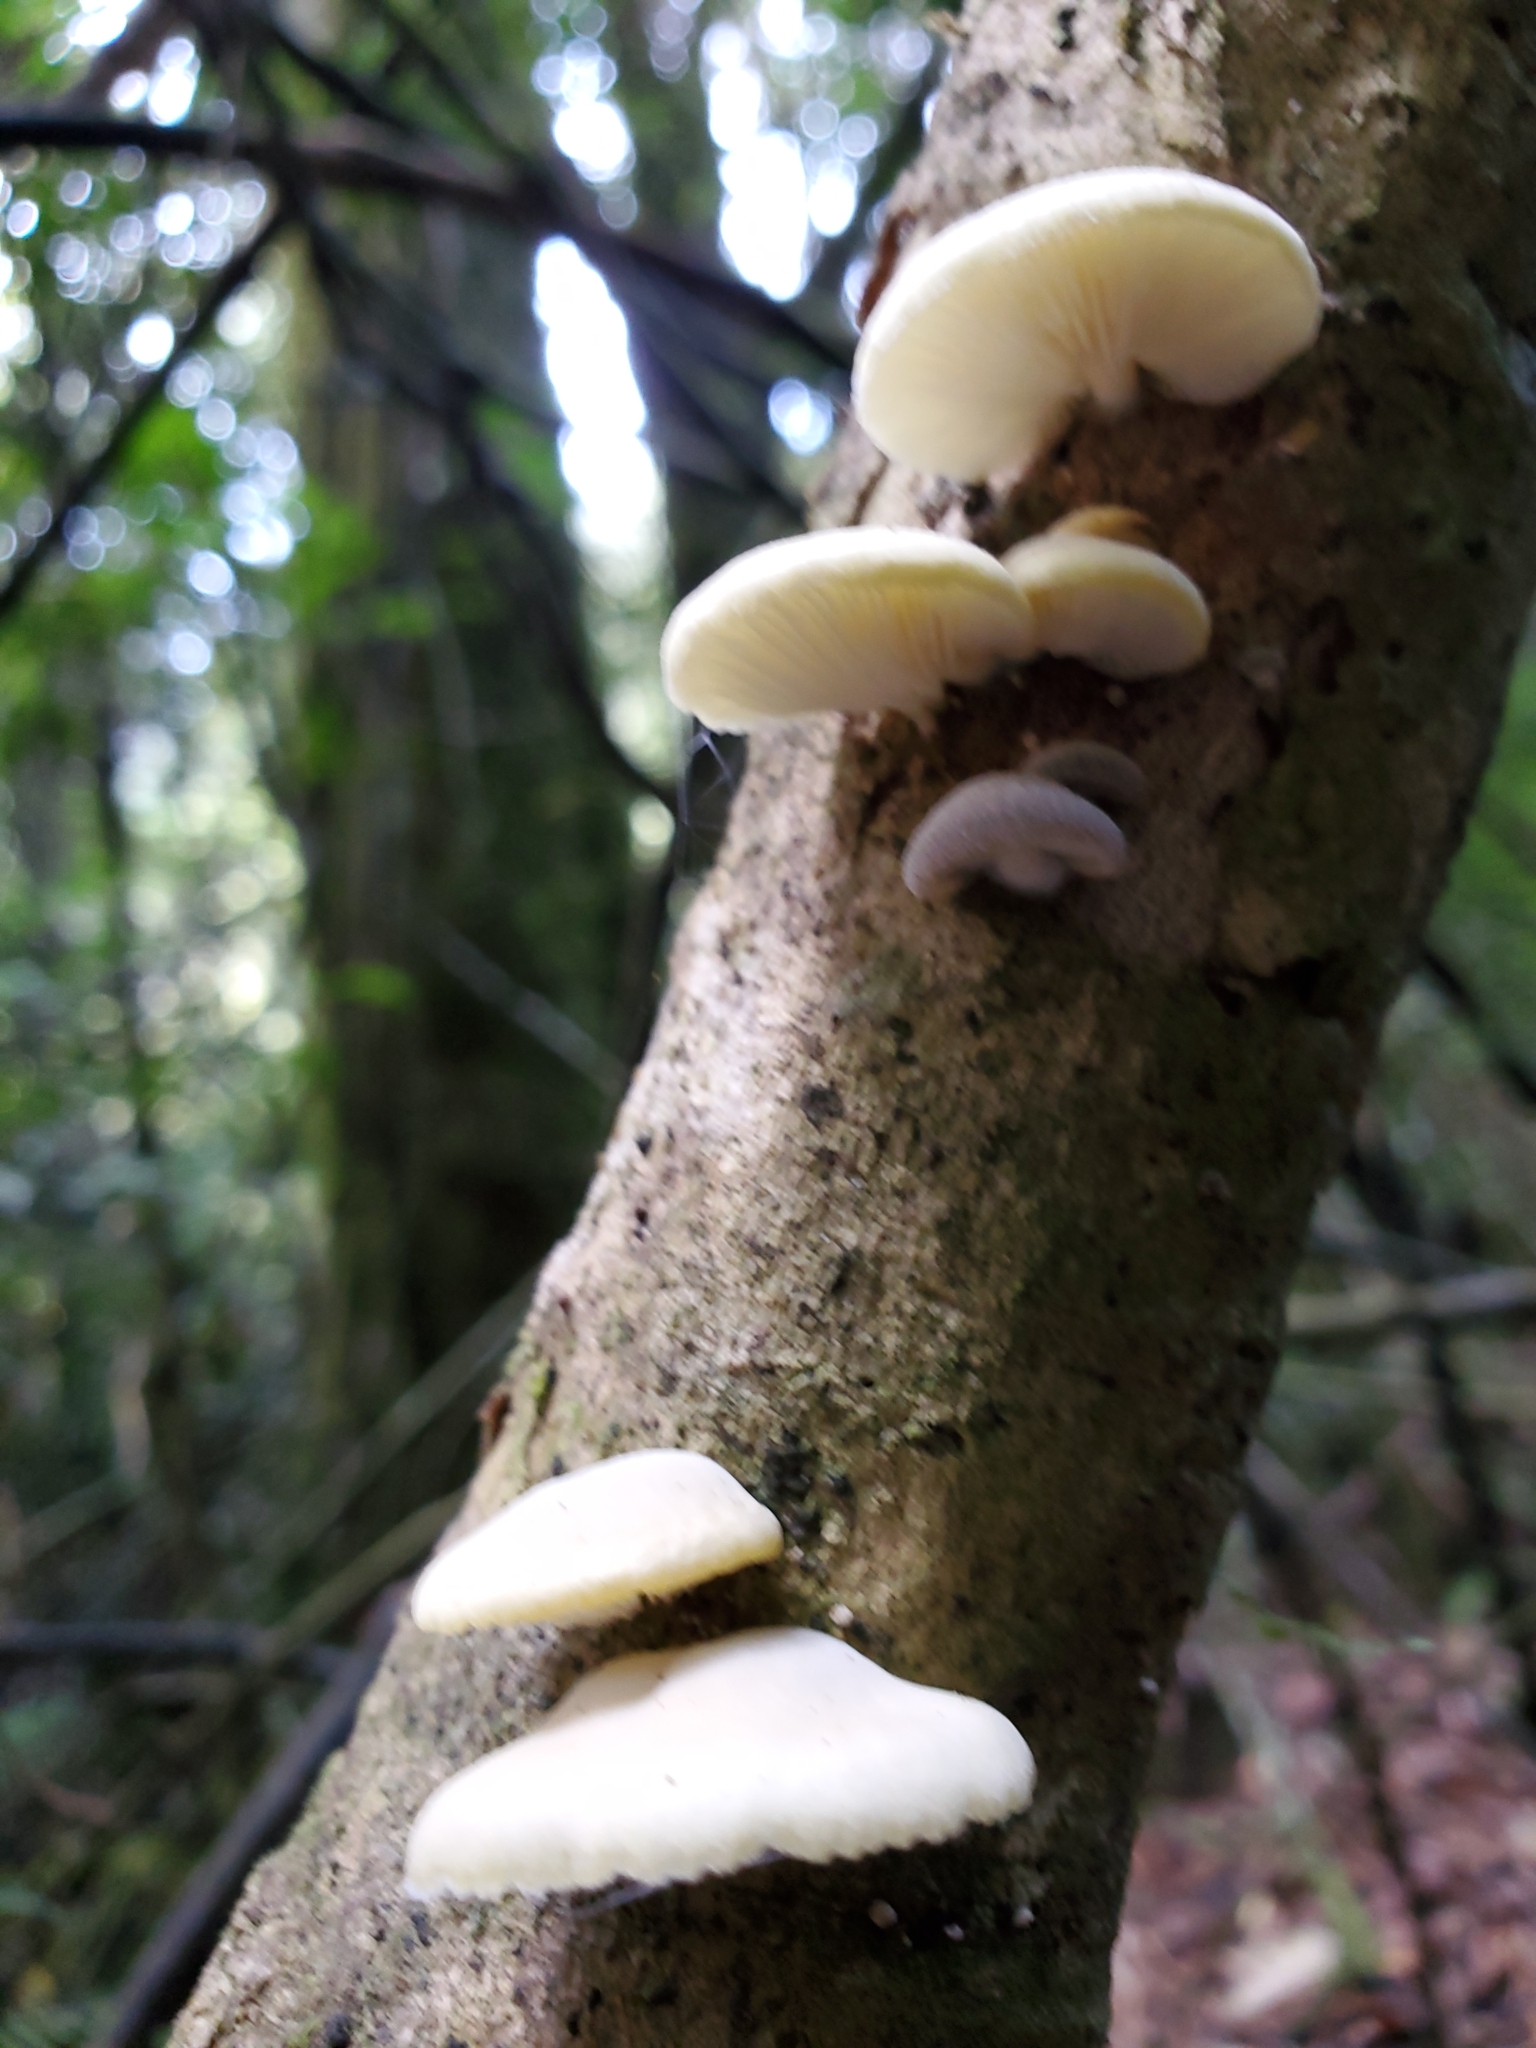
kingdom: Fungi
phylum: Basidiomycota
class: Agaricomycetes
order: Agaricales
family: Tricholomataceae
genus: Conchomyces
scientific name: Conchomyces bursiformis
